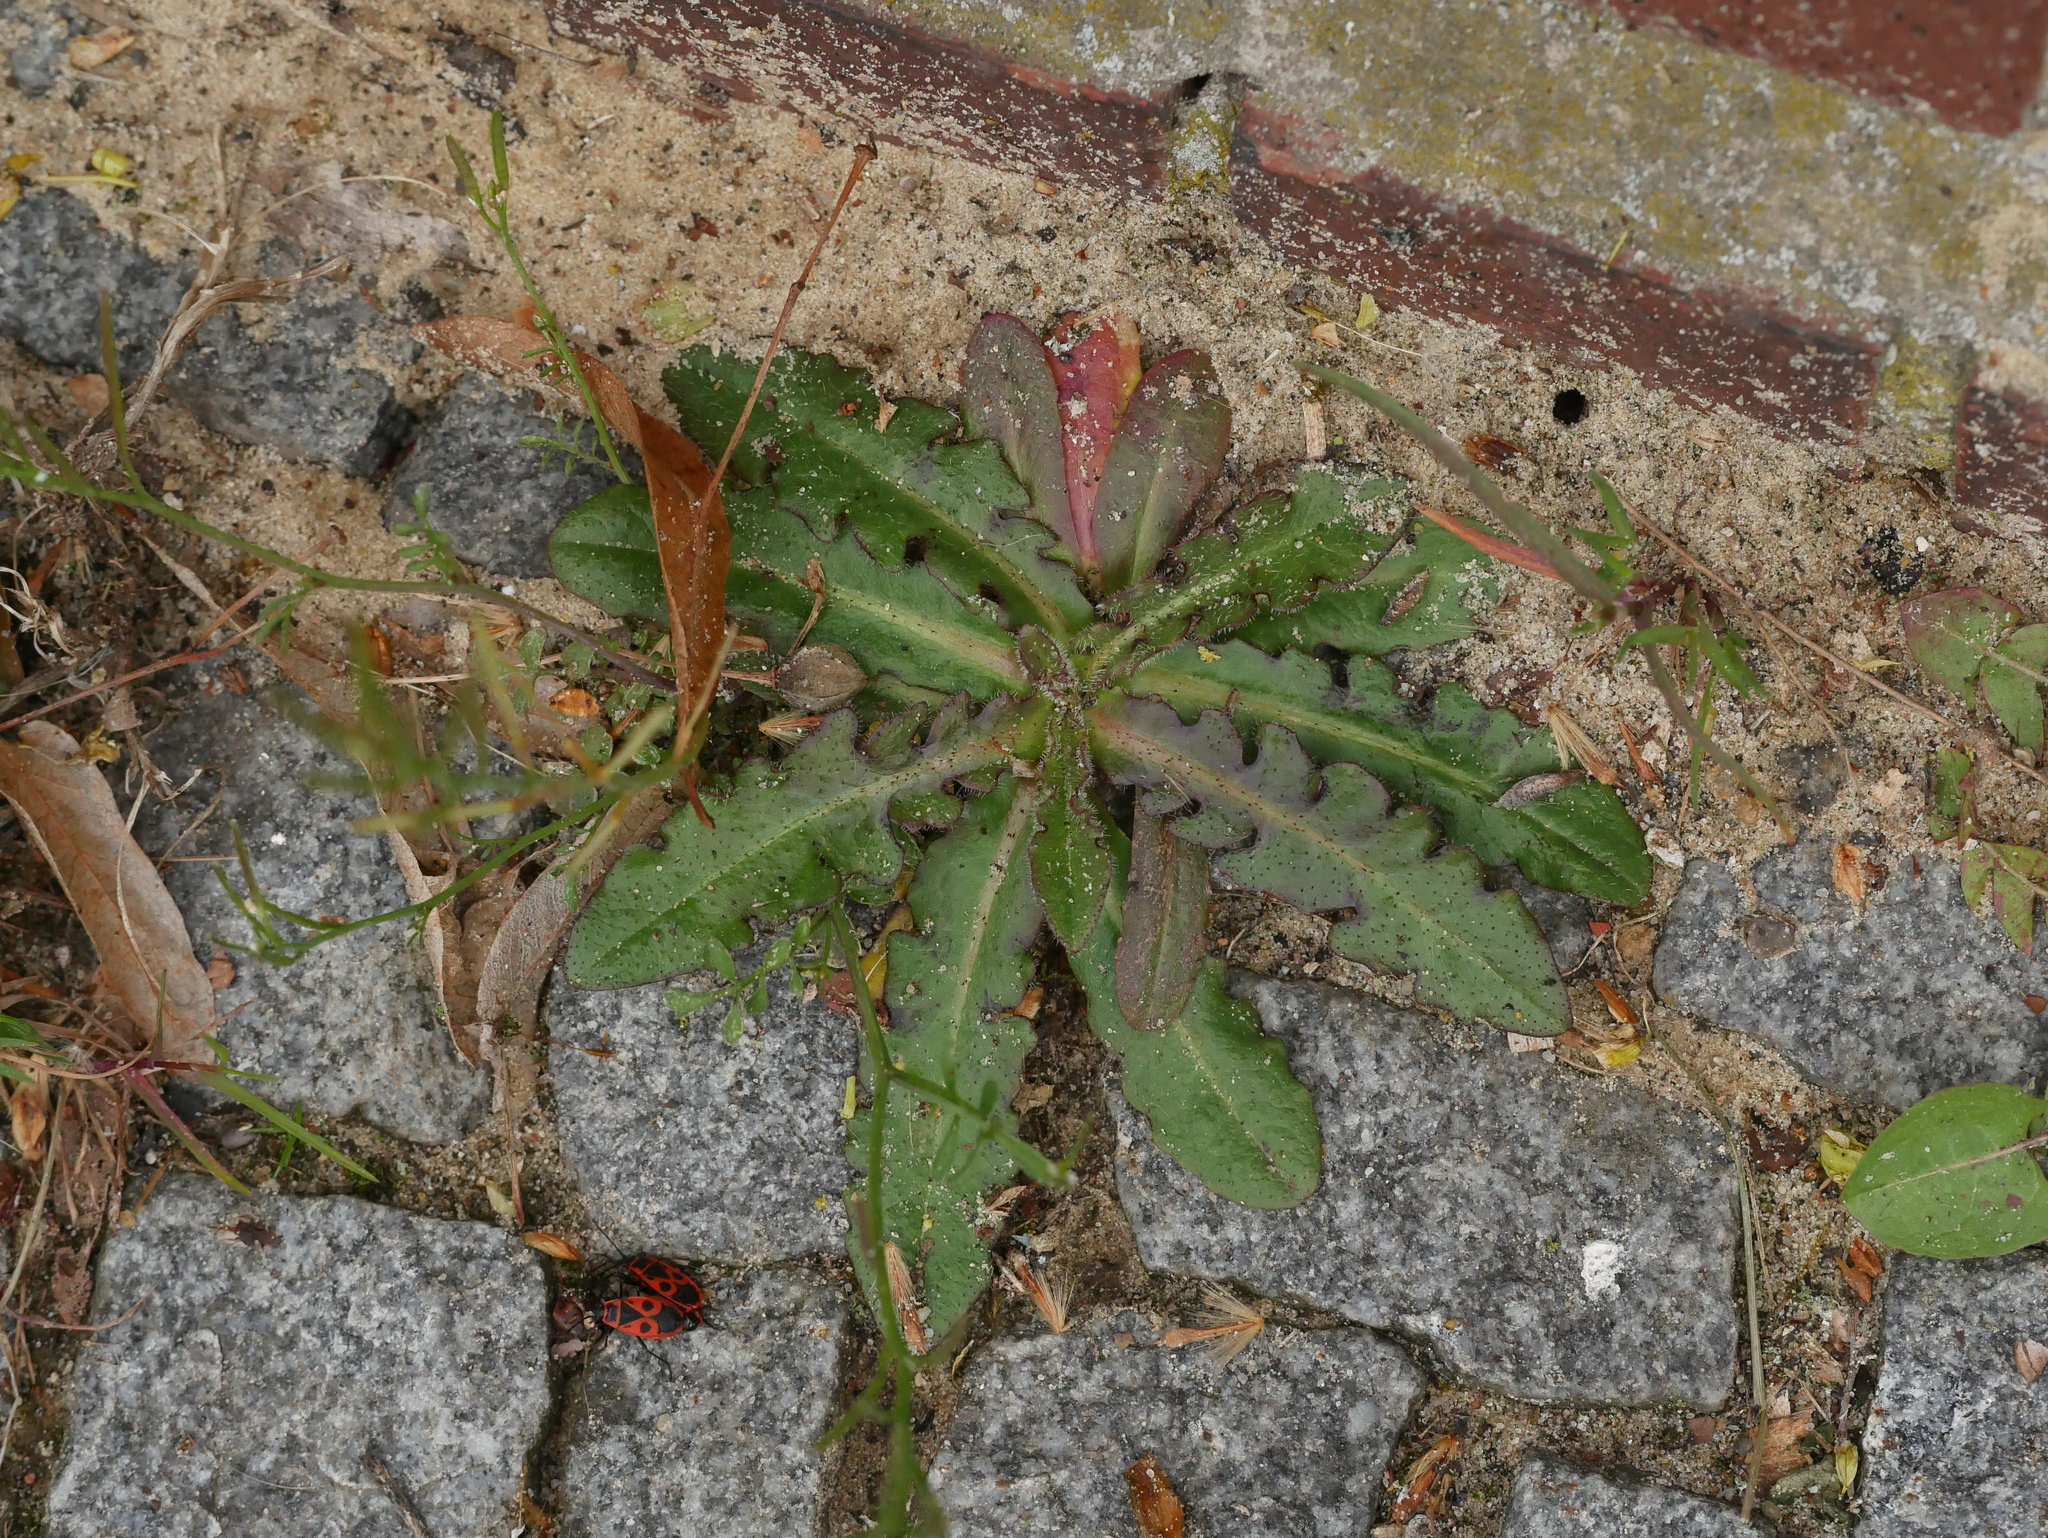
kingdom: Plantae
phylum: Tracheophyta
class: Magnoliopsida
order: Asterales
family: Asteraceae
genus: Hypochaeris
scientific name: Hypochaeris radicata
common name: Flatweed
